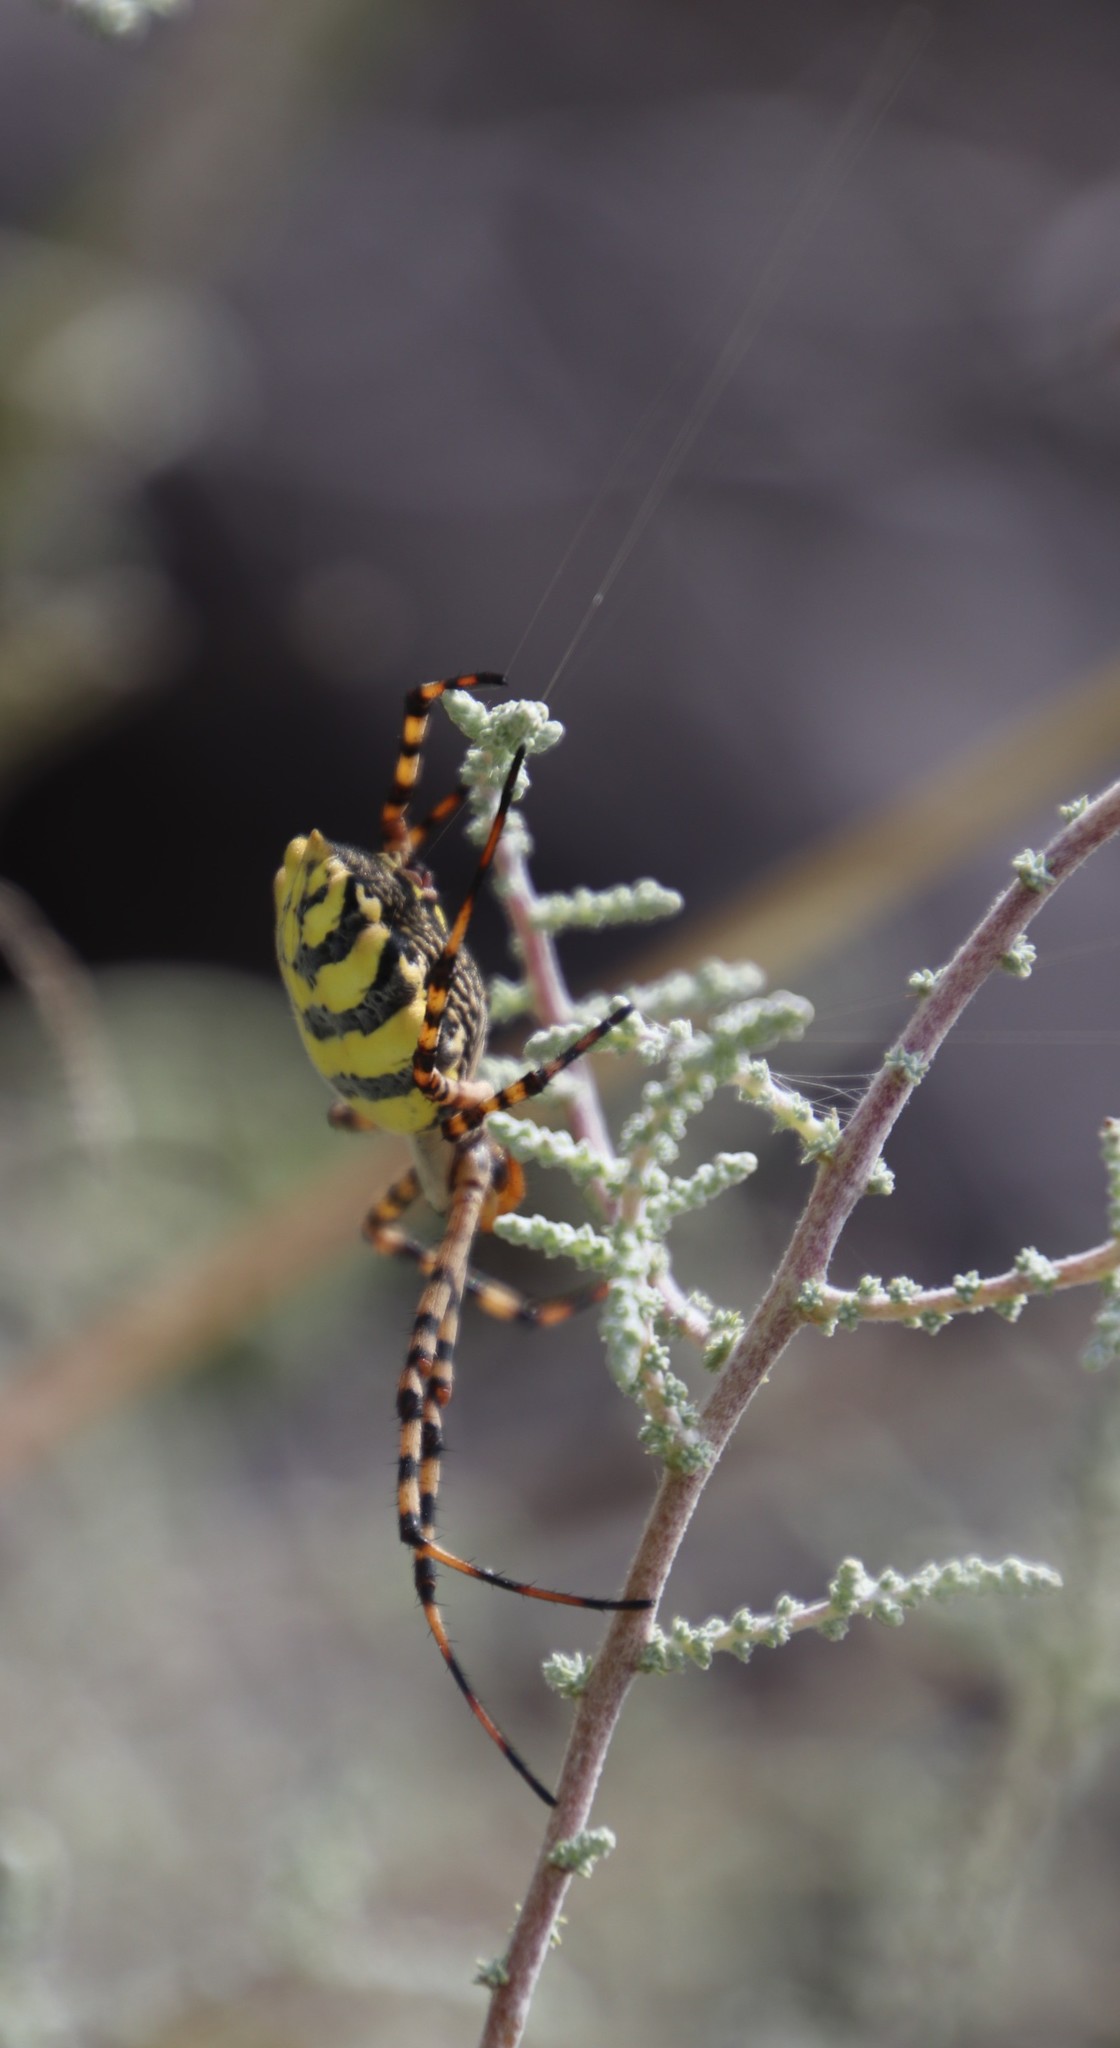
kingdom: Animalia
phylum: Arthropoda
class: Arachnida
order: Araneae
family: Araneidae
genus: Argiope
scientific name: Argiope australis
